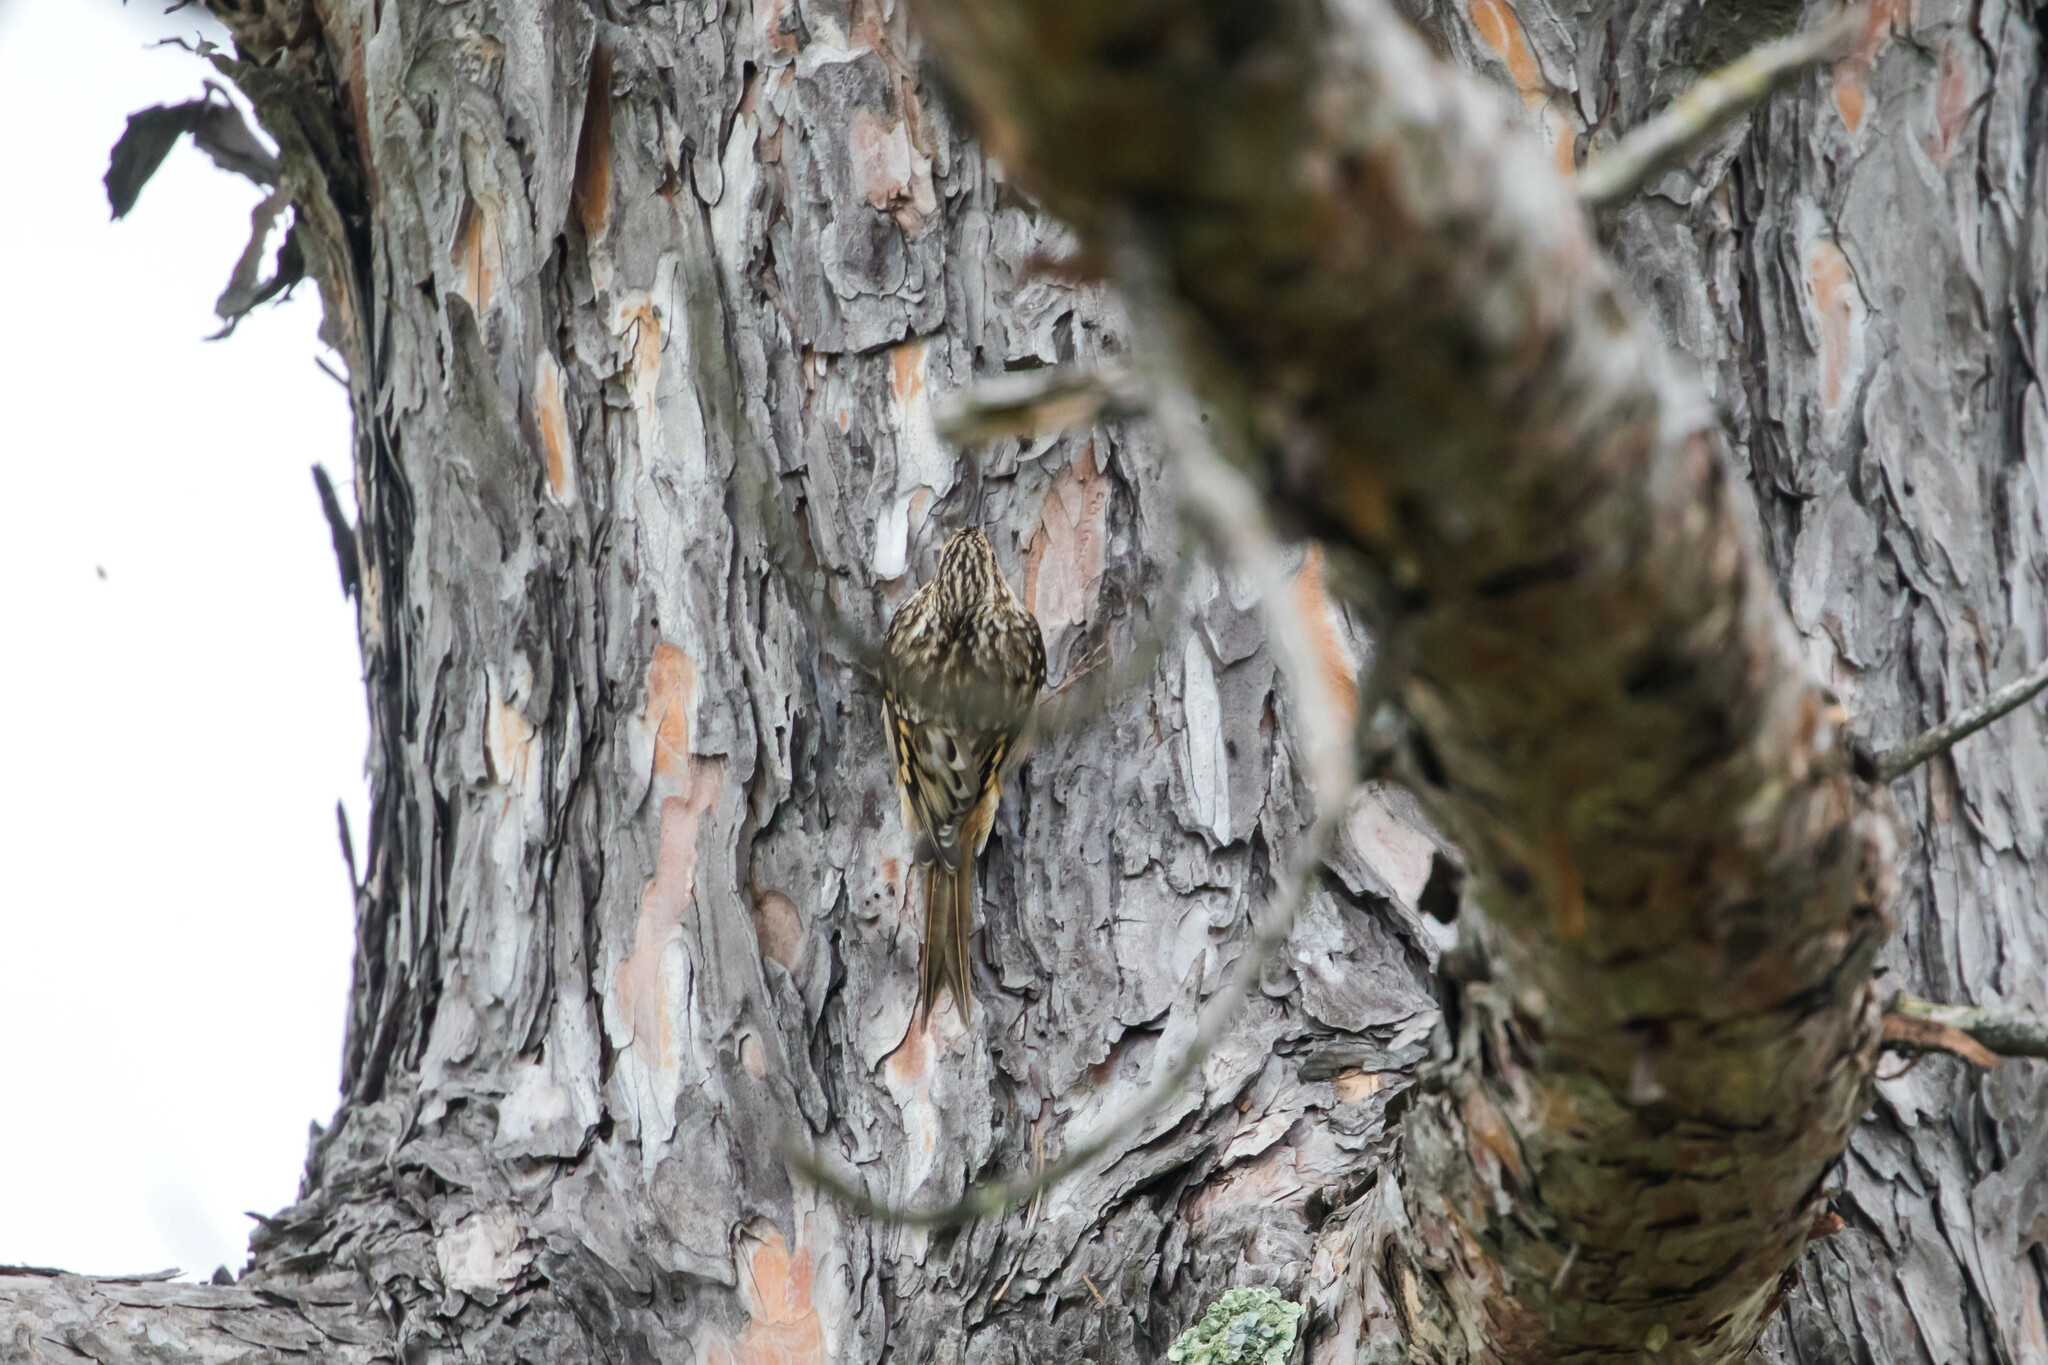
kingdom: Animalia
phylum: Chordata
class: Aves
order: Passeriformes
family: Certhiidae
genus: Certhia
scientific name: Certhia americana
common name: Brown creeper
